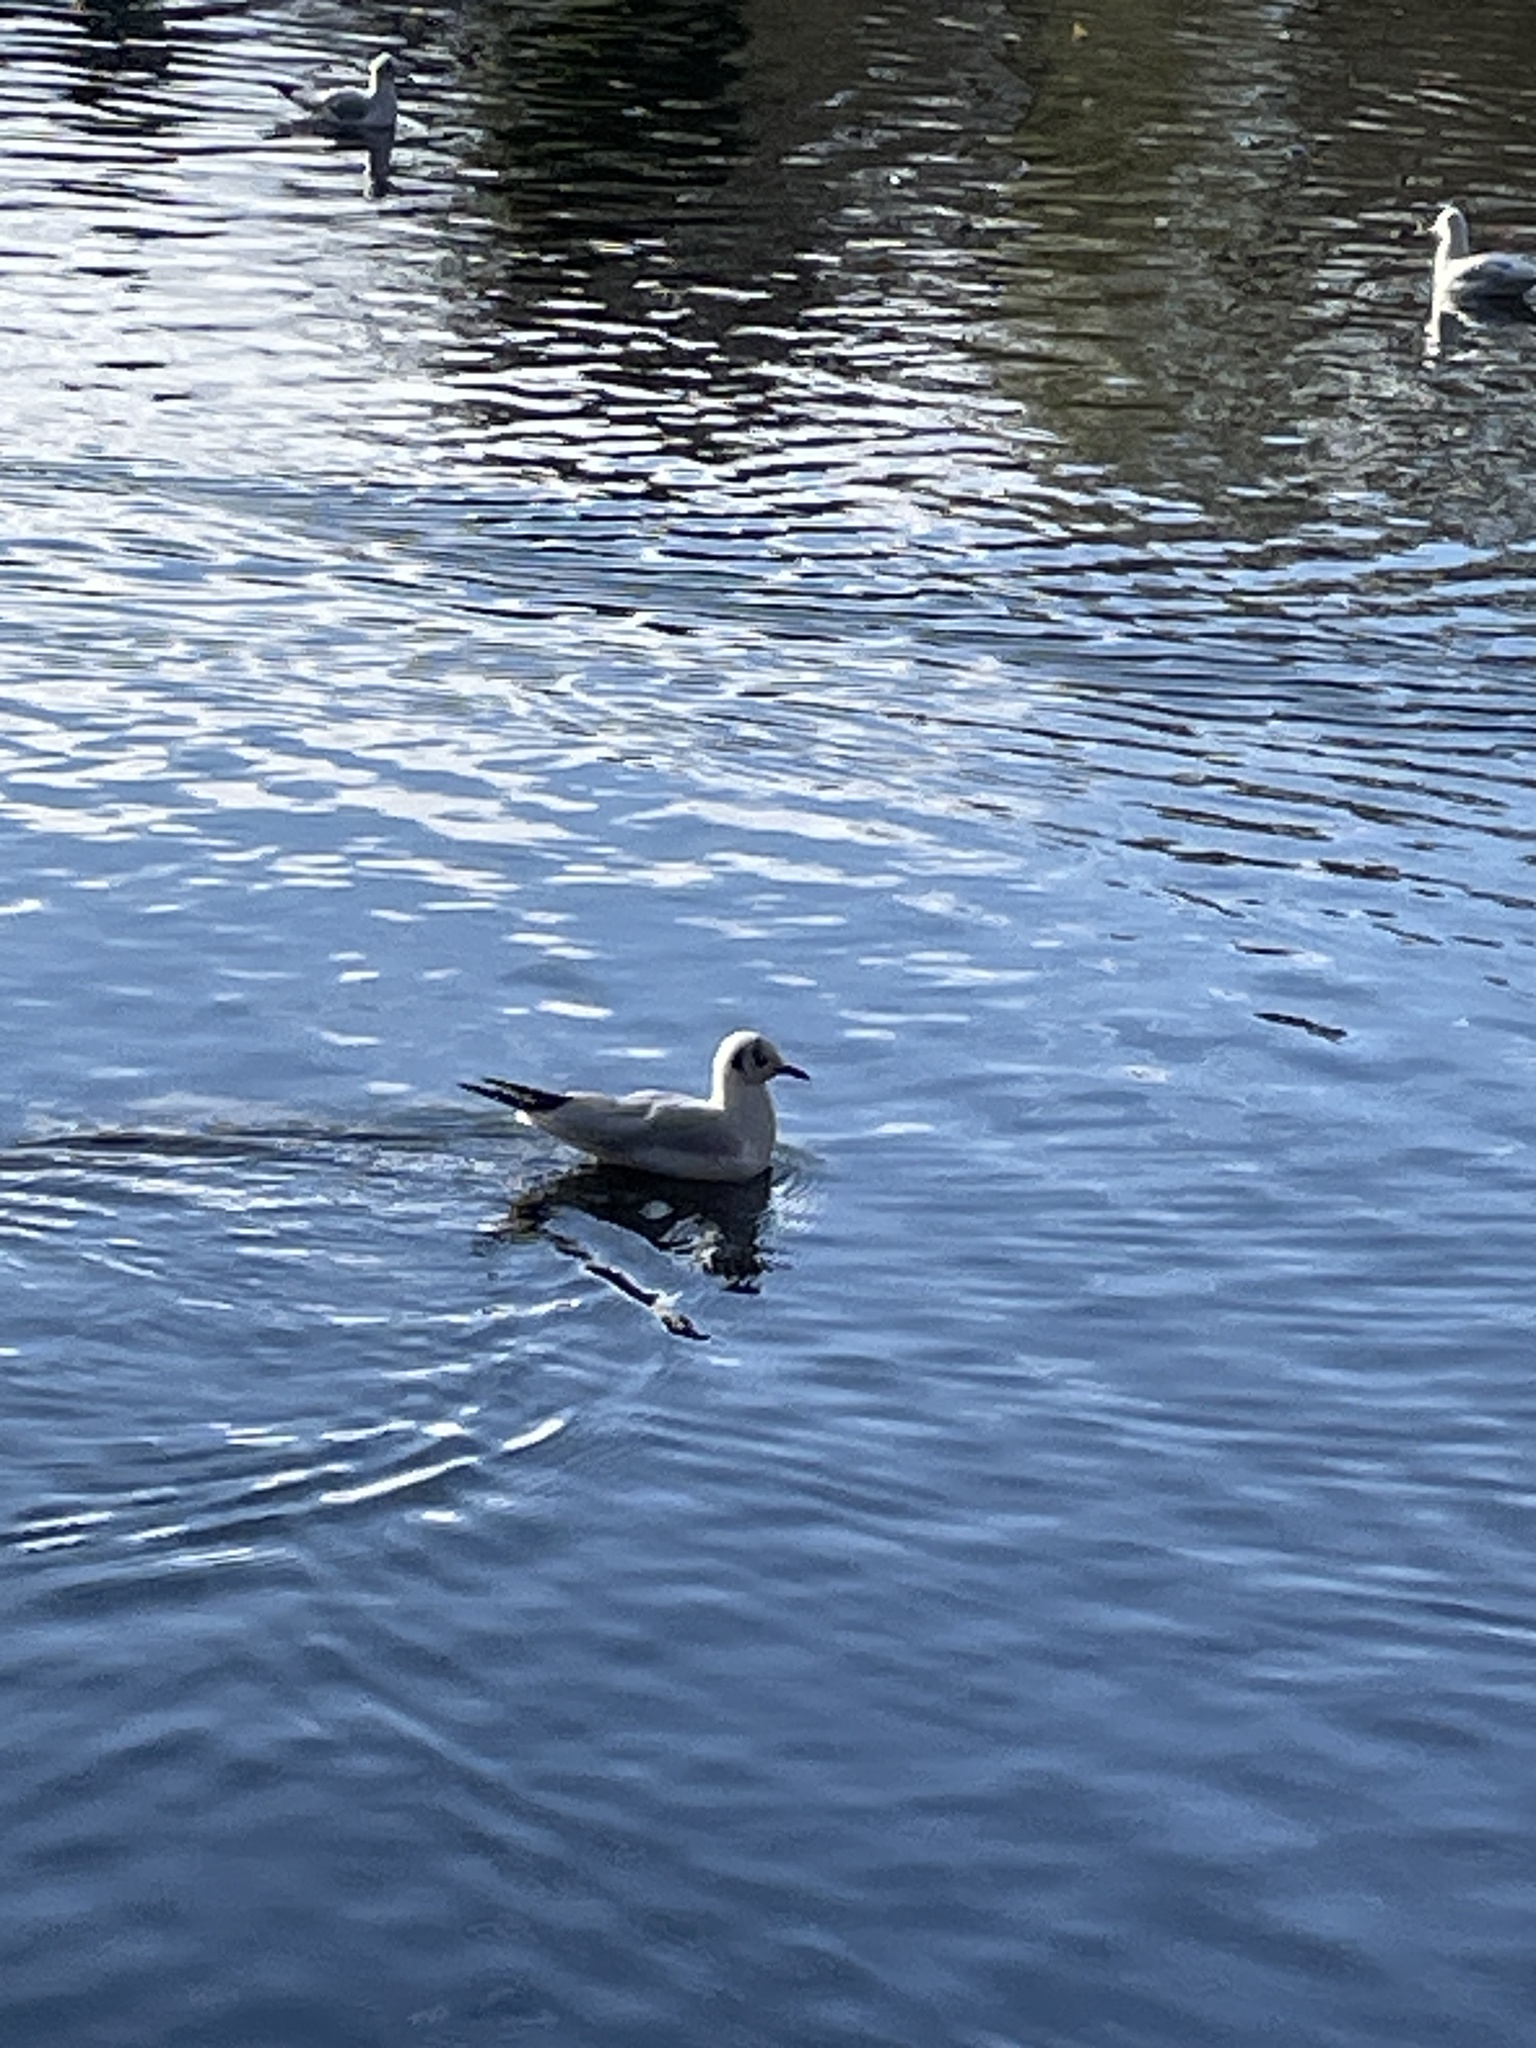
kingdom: Animalia
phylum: Chordata
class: Aves
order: Charadriiformes
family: Laridae
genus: Chroicocephalus
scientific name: Chroicocephalus ridibundus
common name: Black-headed gull
